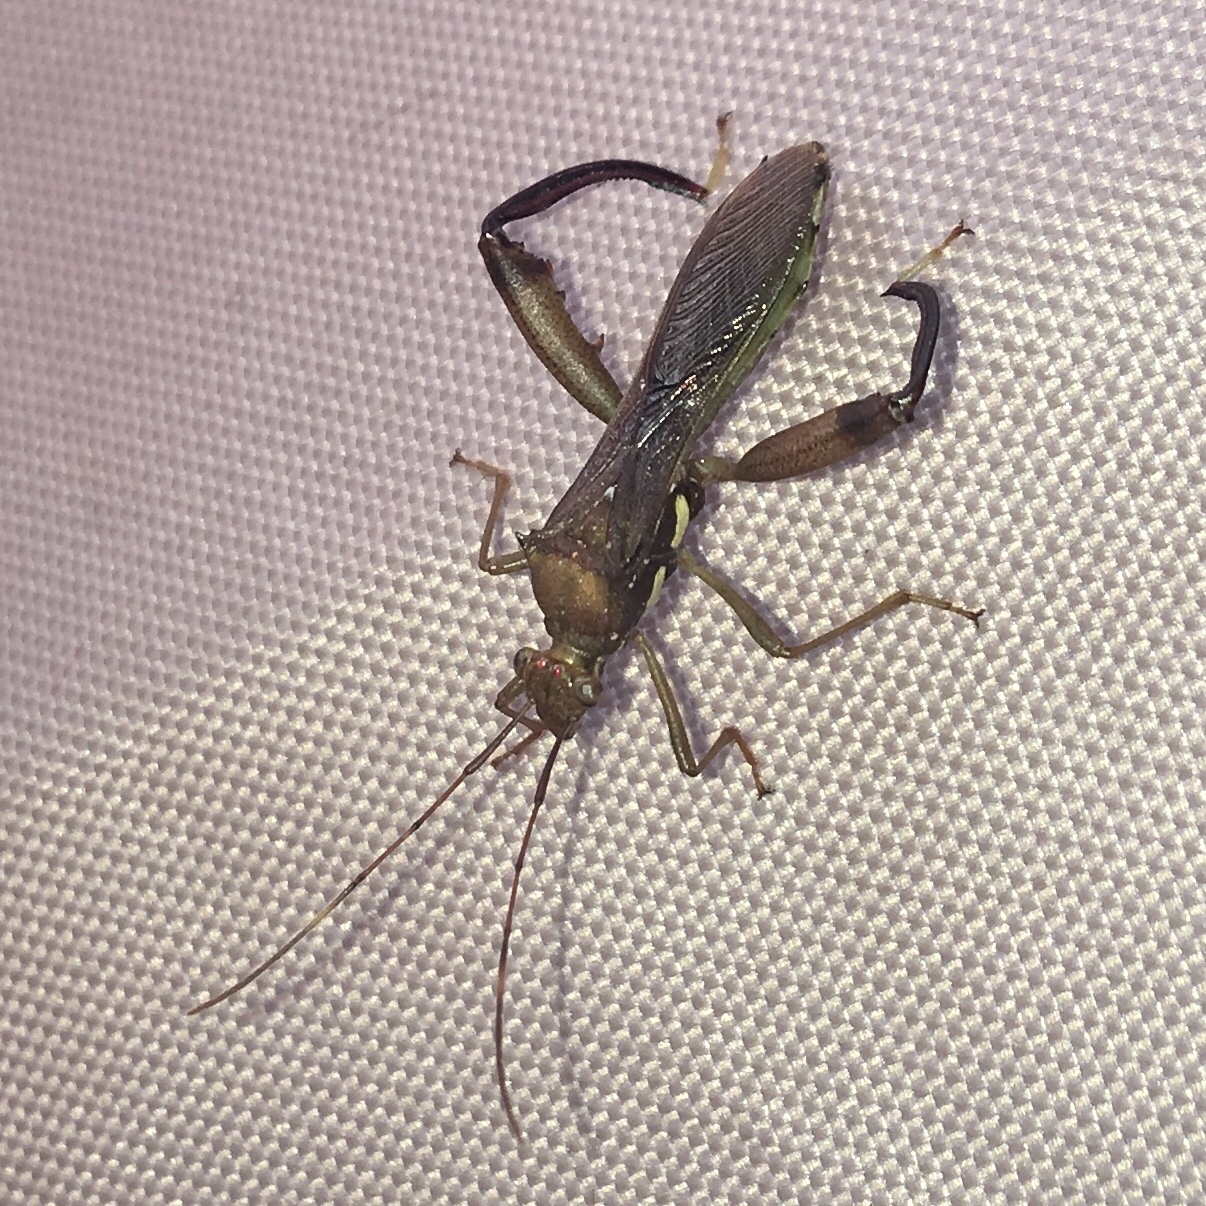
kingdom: Animalia
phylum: Arthropoda
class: Insecta
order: Hemiptera
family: Alydidae
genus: Hyalymenus
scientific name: Hyalymenus tarsatus
